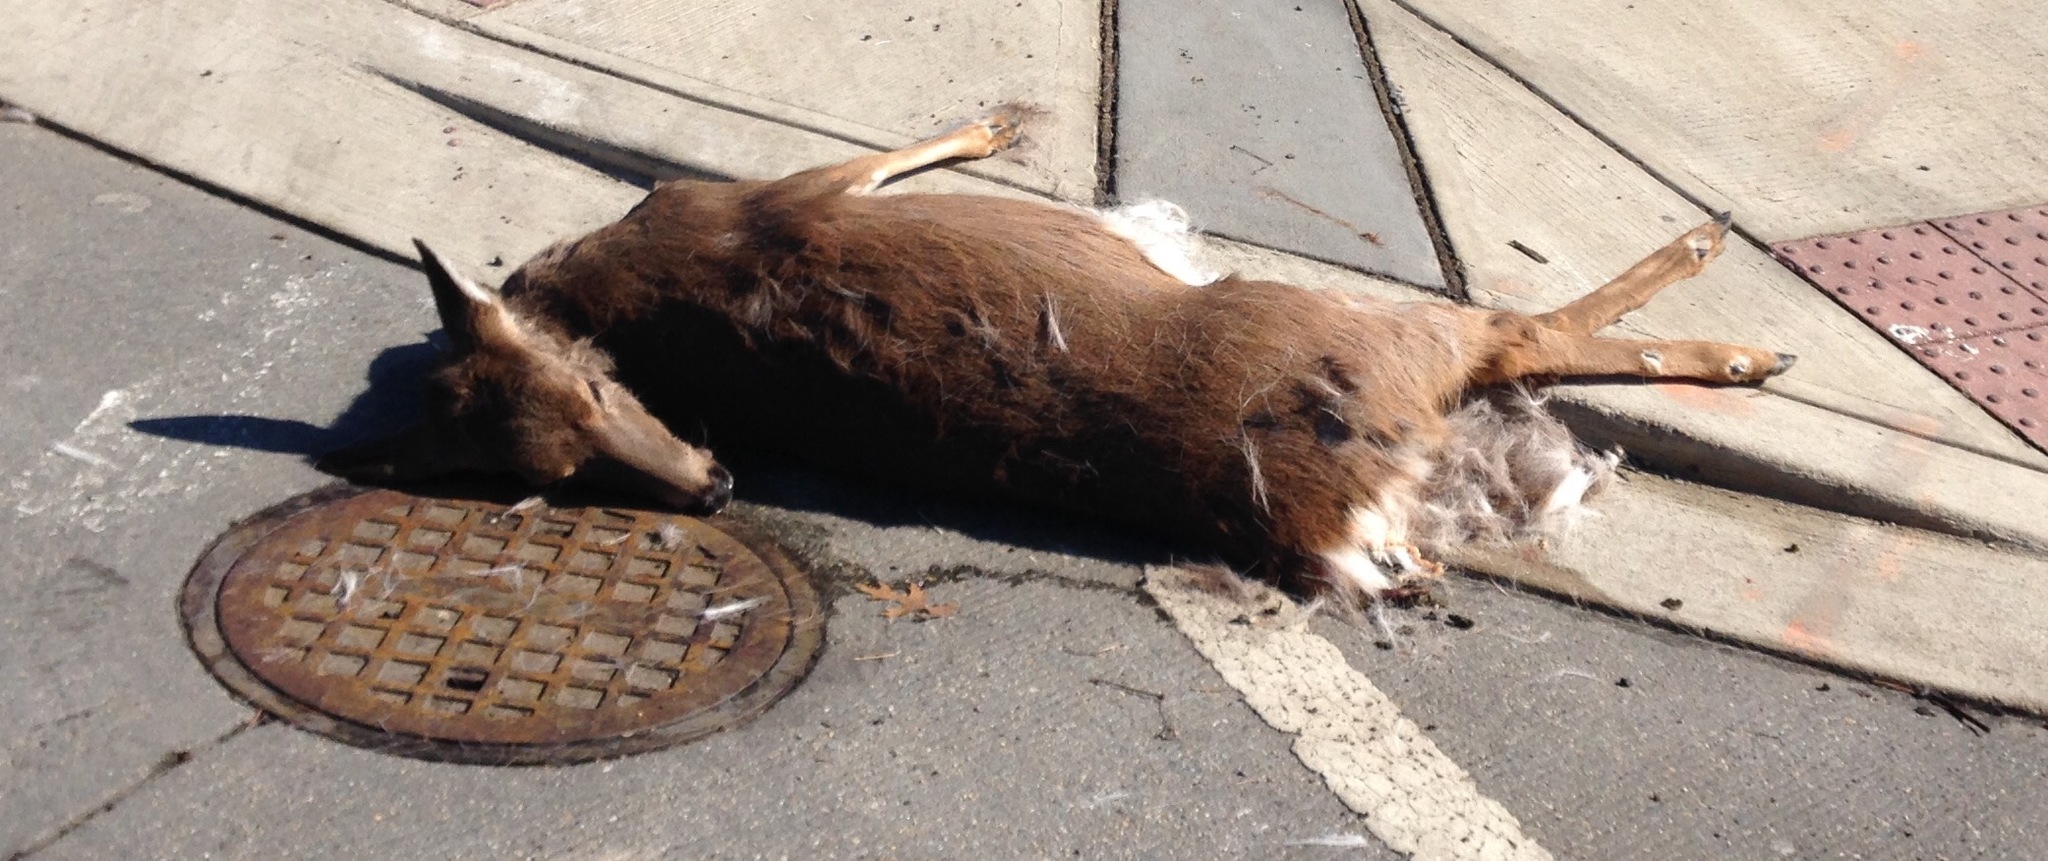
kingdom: Animalia
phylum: Chordata
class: Mammalia
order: Artiodactyla
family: Cervidae
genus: Odocoileus
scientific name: Odocoileus virginianus
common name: White-tailed deer
